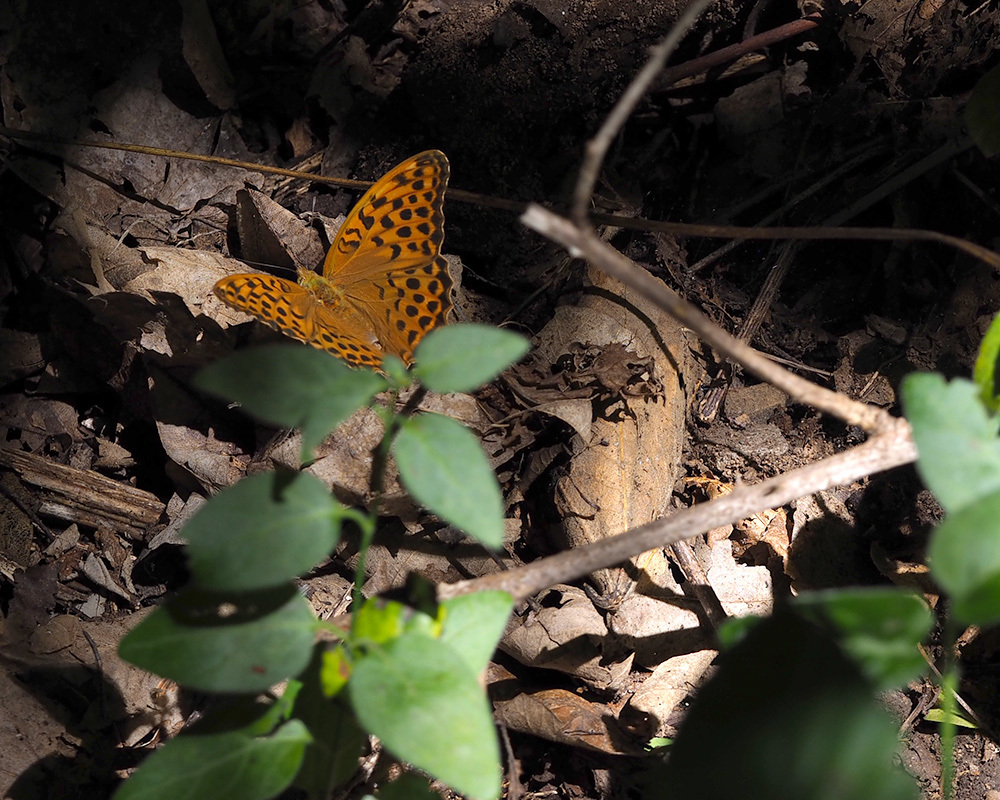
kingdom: Animalia
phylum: Arthropoda
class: Insecta
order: Lepidoptera
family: Nymphalidae
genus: Argynnis
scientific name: Argynnis paphia
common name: Silver-washed fritillary
